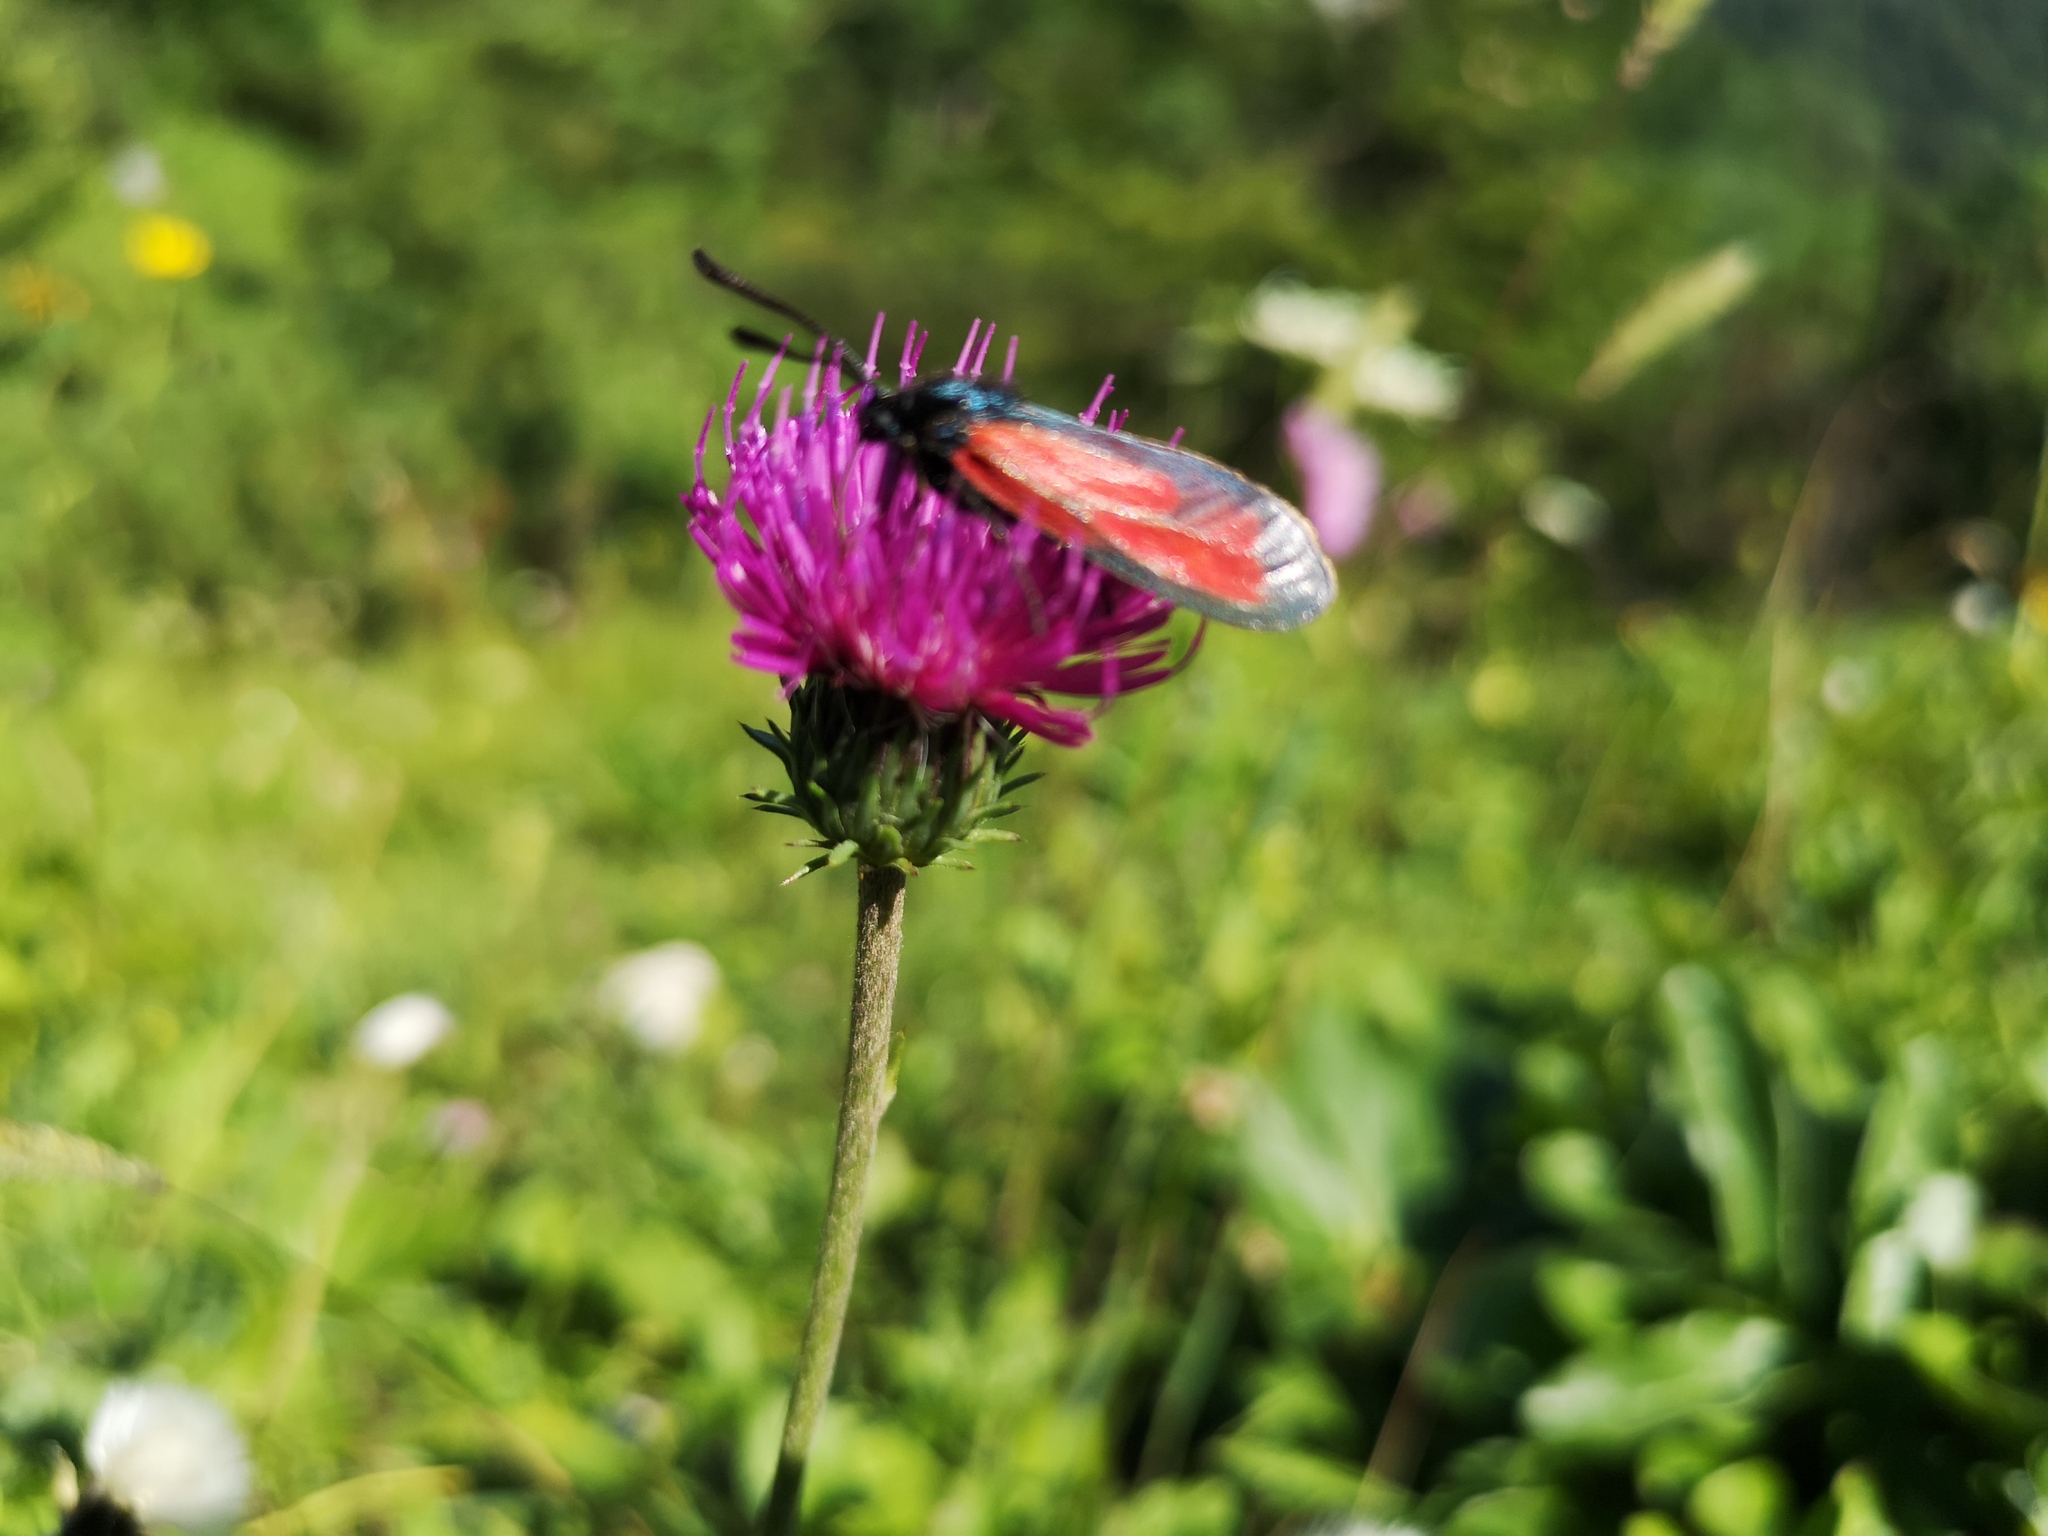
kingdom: Plantae
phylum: Tracheophyta
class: Magnoliopsida
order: Asterales
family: Asteraceae
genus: Carduus
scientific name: Carduus defloratus
